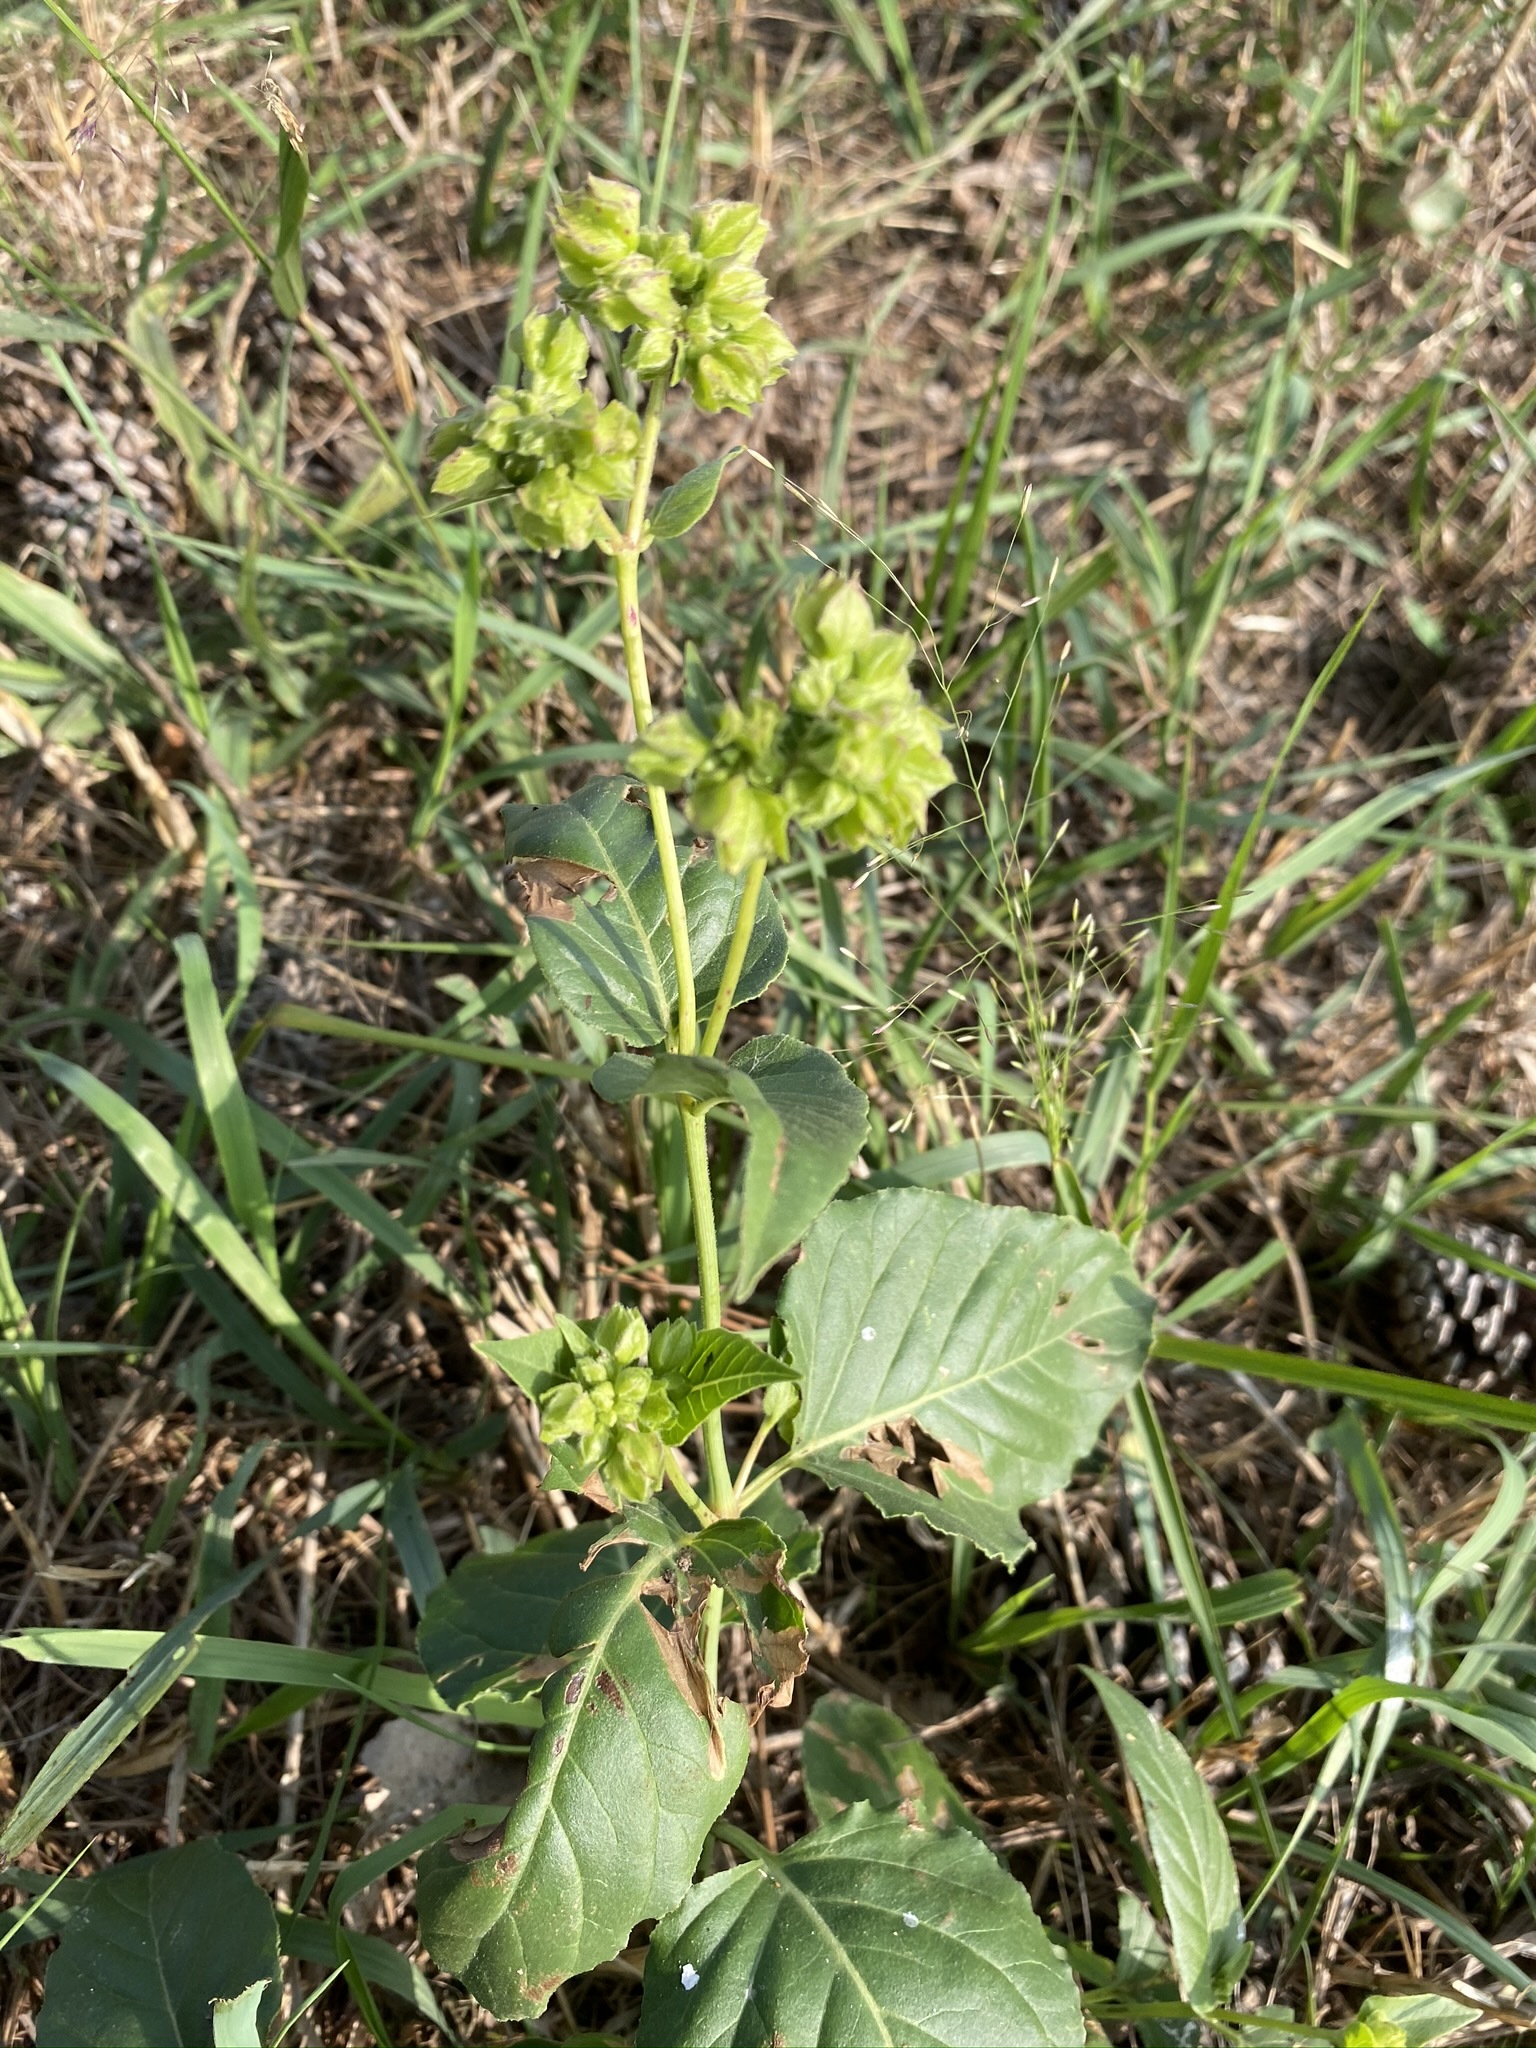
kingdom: Plantae
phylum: Tracheophyta
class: Magnoliopsida
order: Caryophyllales
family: Nyctaginaceae
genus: Mirabilis
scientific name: Mirabilis nyctaginea
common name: Umbrella wort
